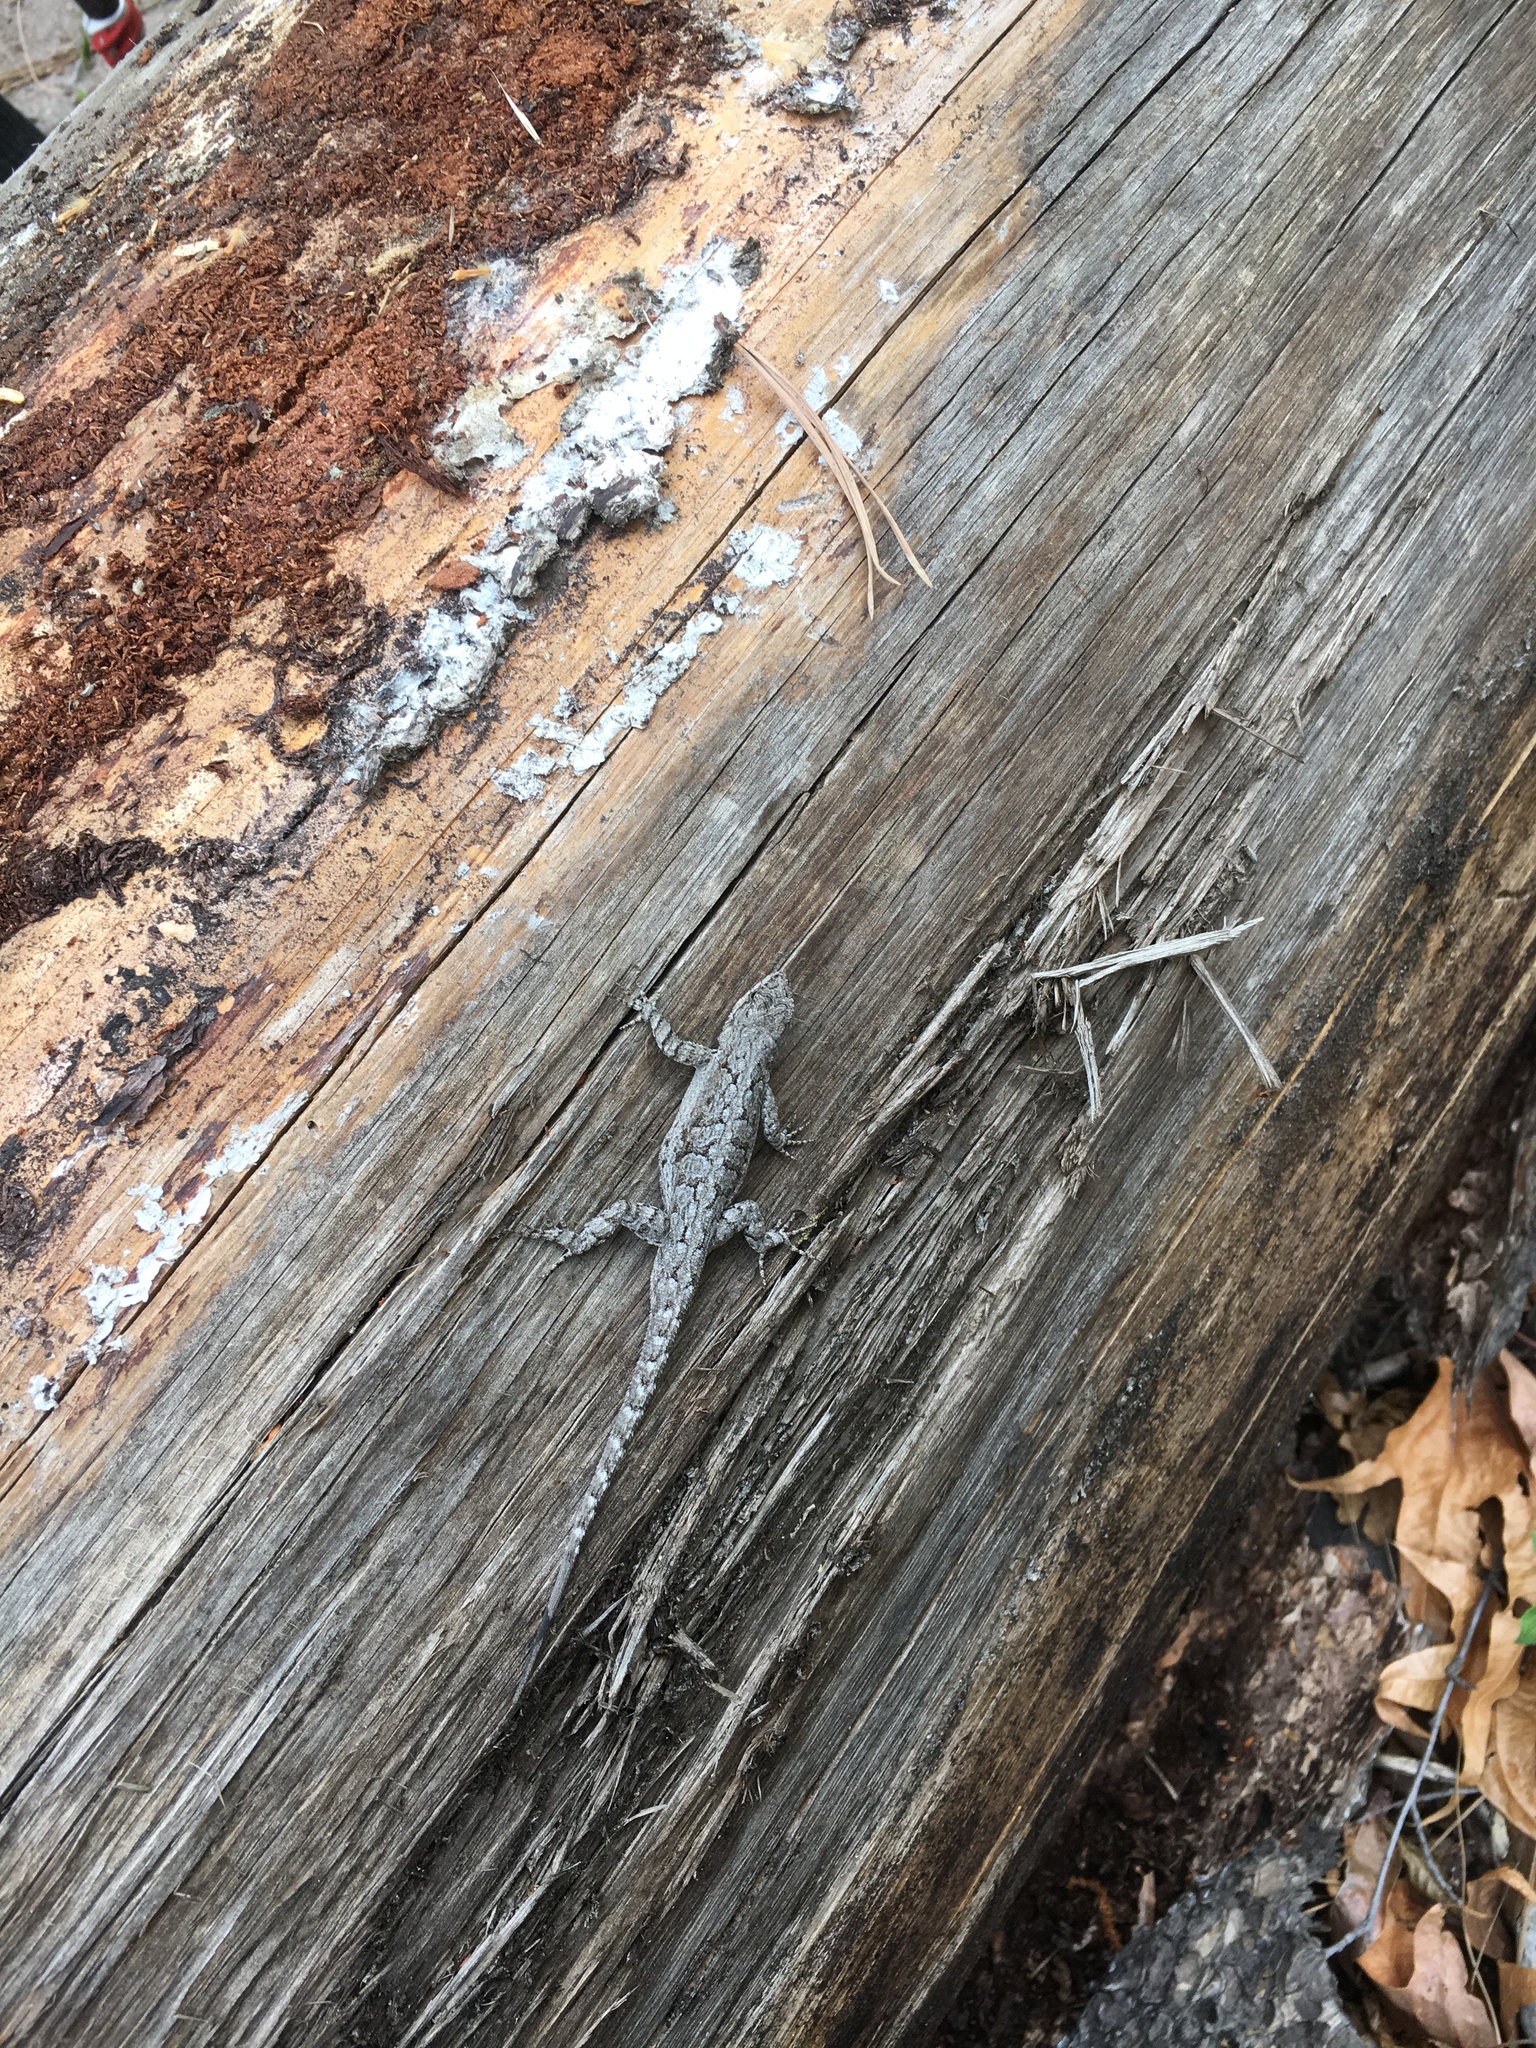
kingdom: Animalia
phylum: Chordata
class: Squamata
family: Phrynosomatidae
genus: Urosaurus
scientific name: Urosaurus ornatus
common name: Ornate tree lizard
